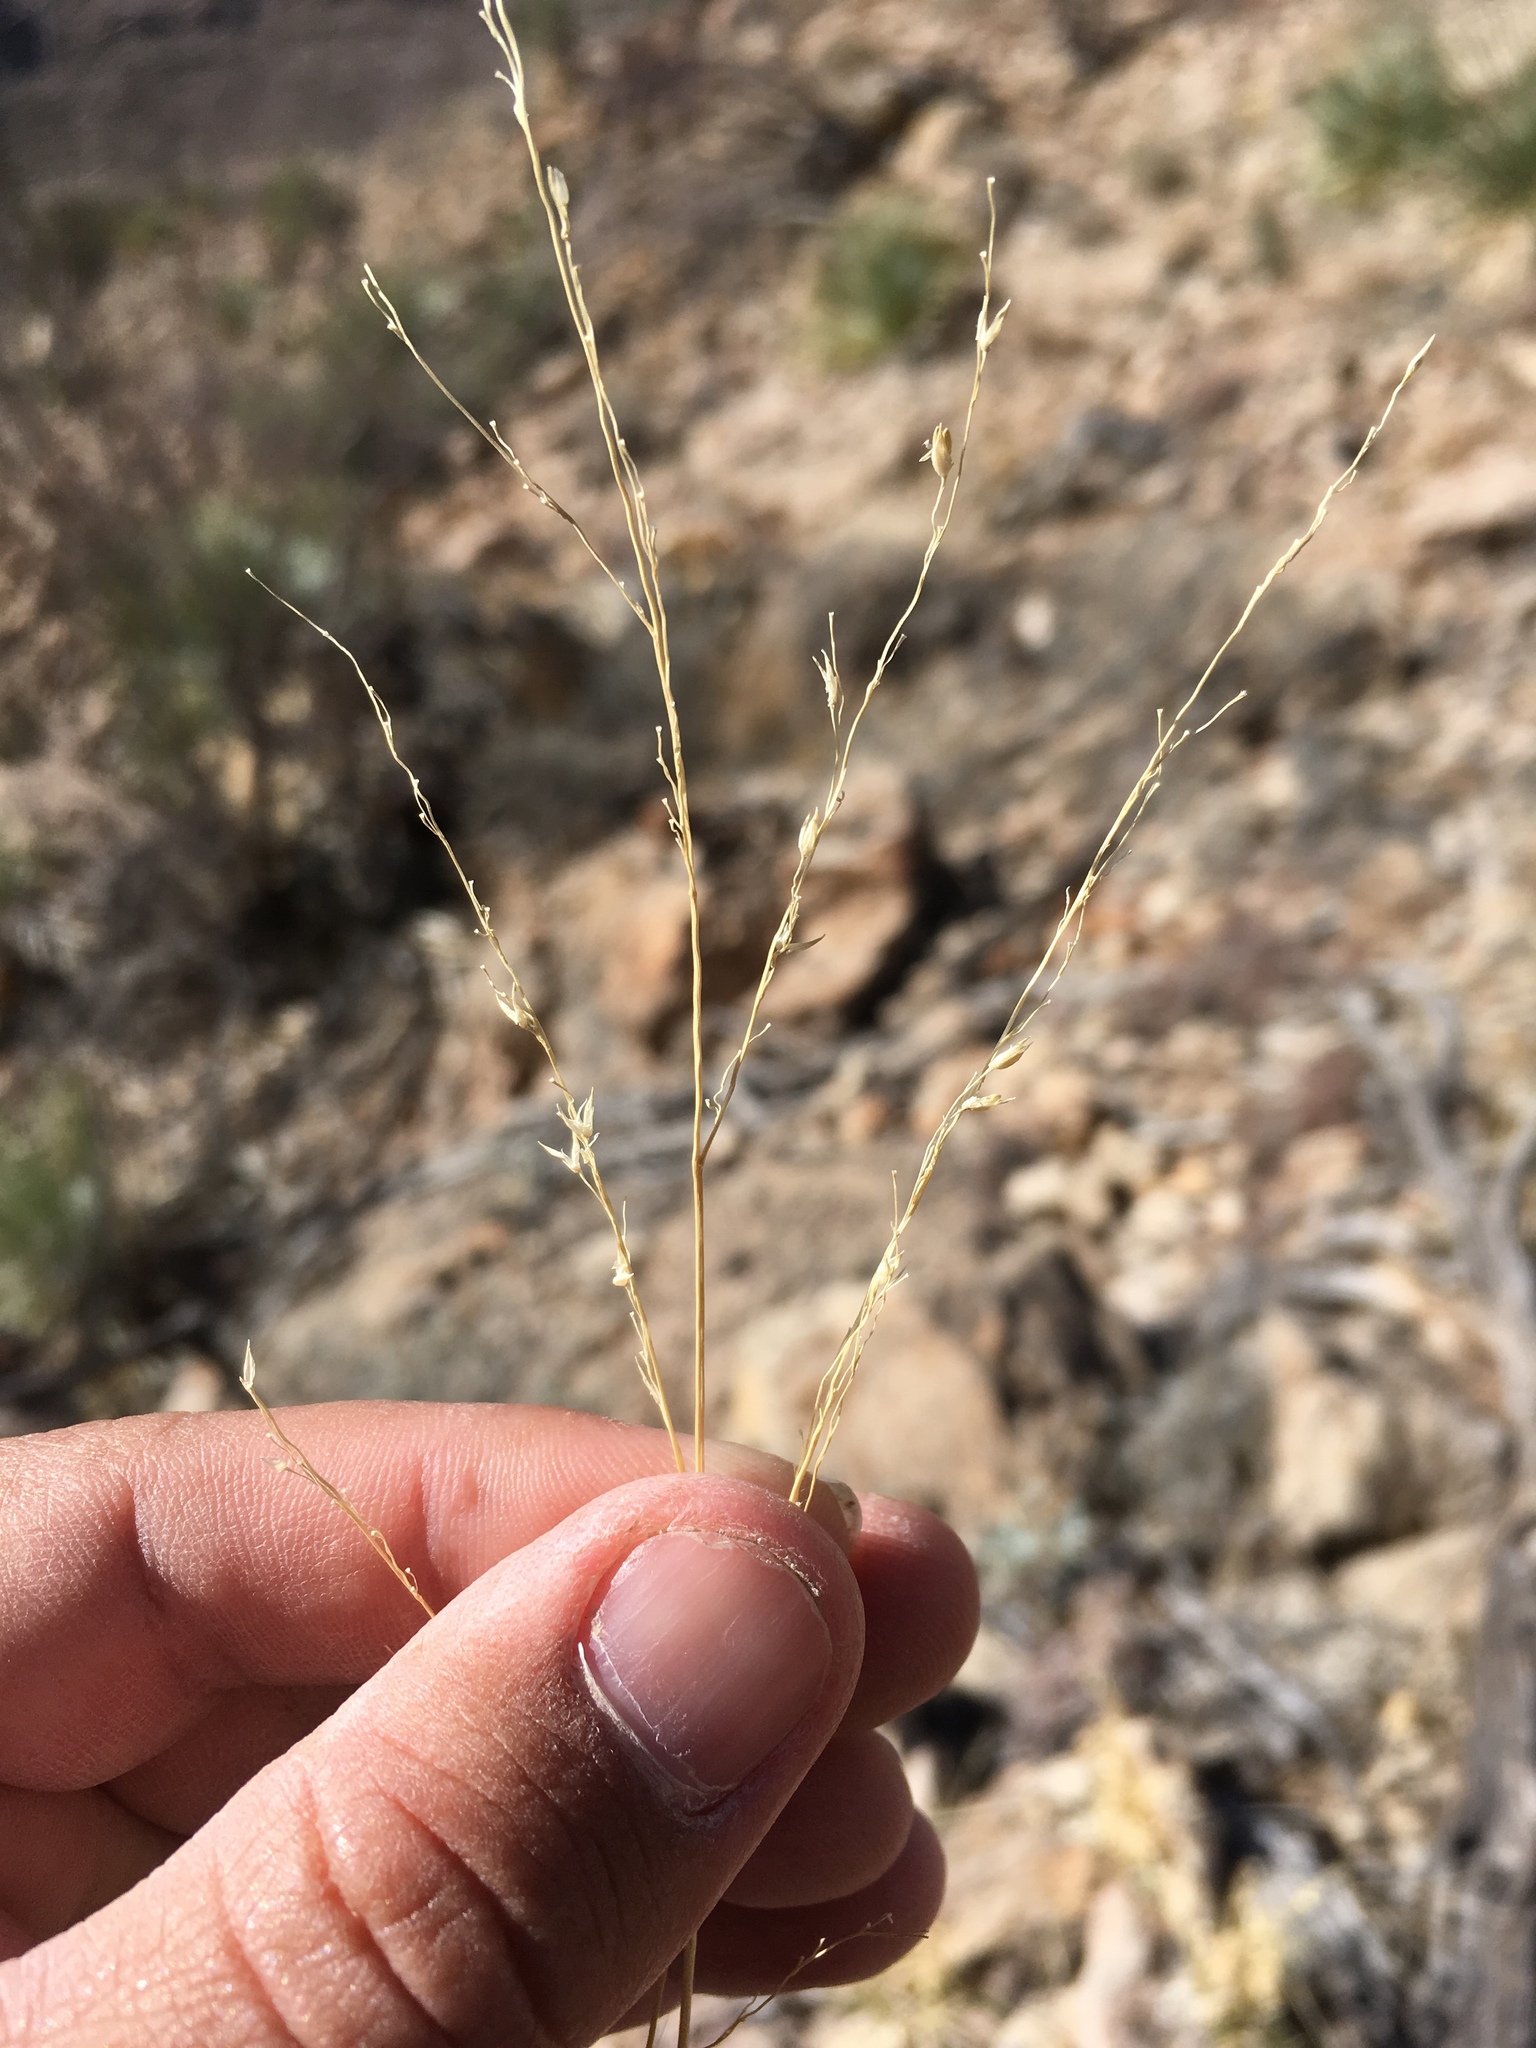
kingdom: Plantae
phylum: Tracheophyta
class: Liliopsida
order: Poales
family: Poaceae
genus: Panicum
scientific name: Panicum hallii
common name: Hall's witchgrass
